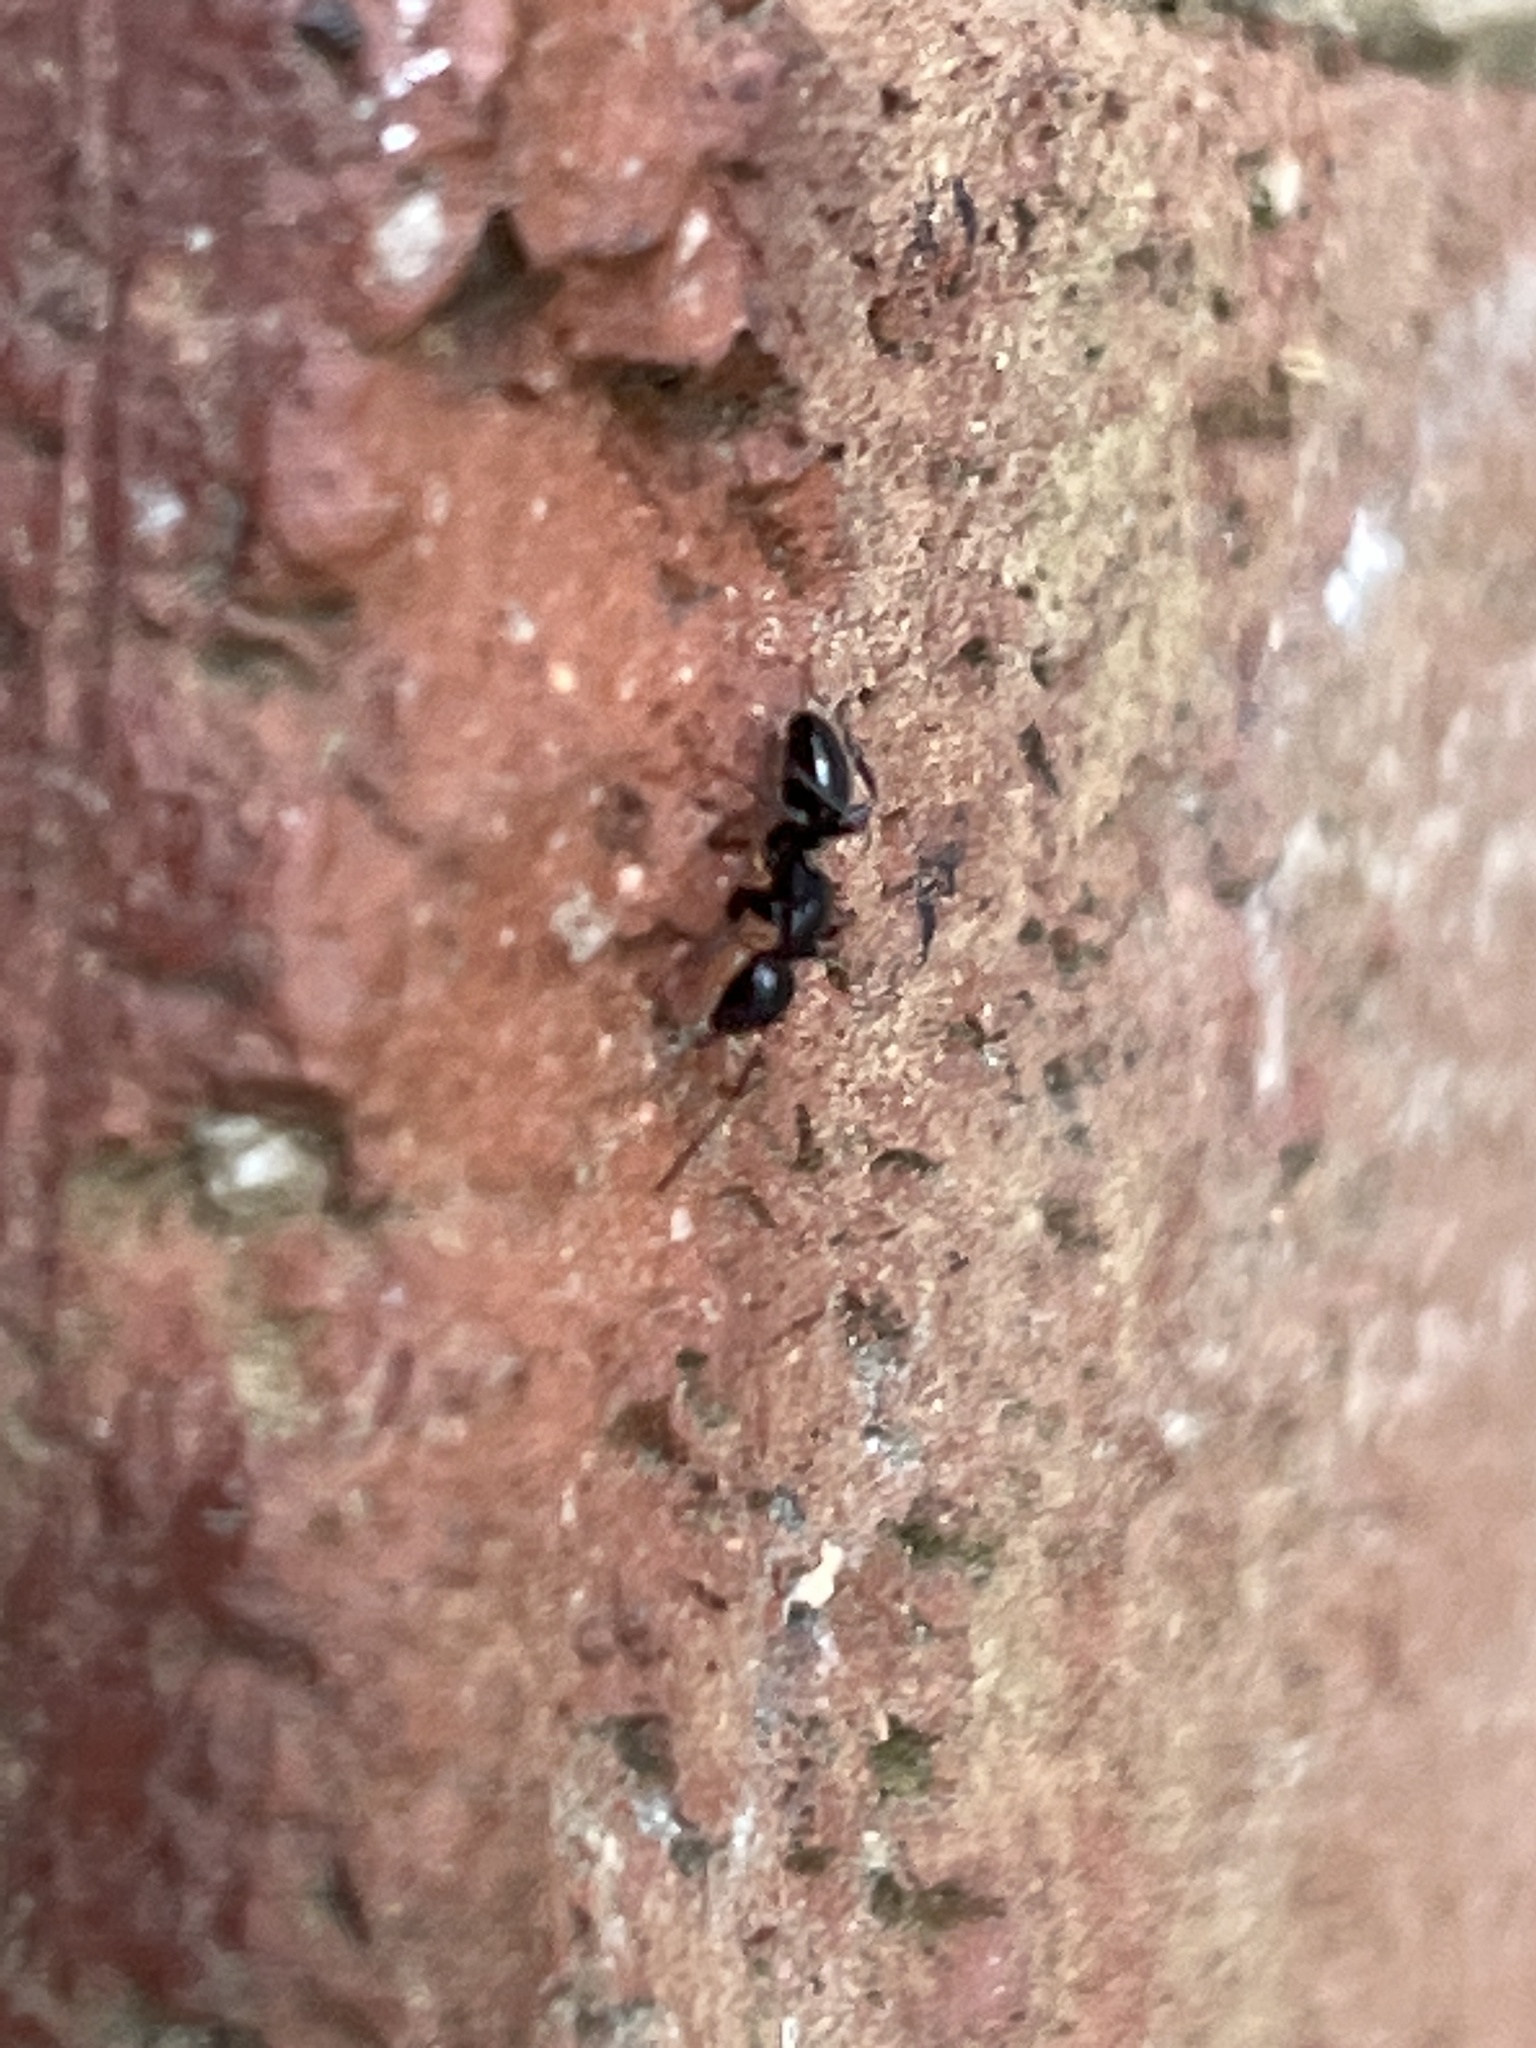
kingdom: Animalia
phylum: Arthropoda
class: Insecta
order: Hymenoptera
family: Formicidae
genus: Myrmentoma
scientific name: Myrmentoma
